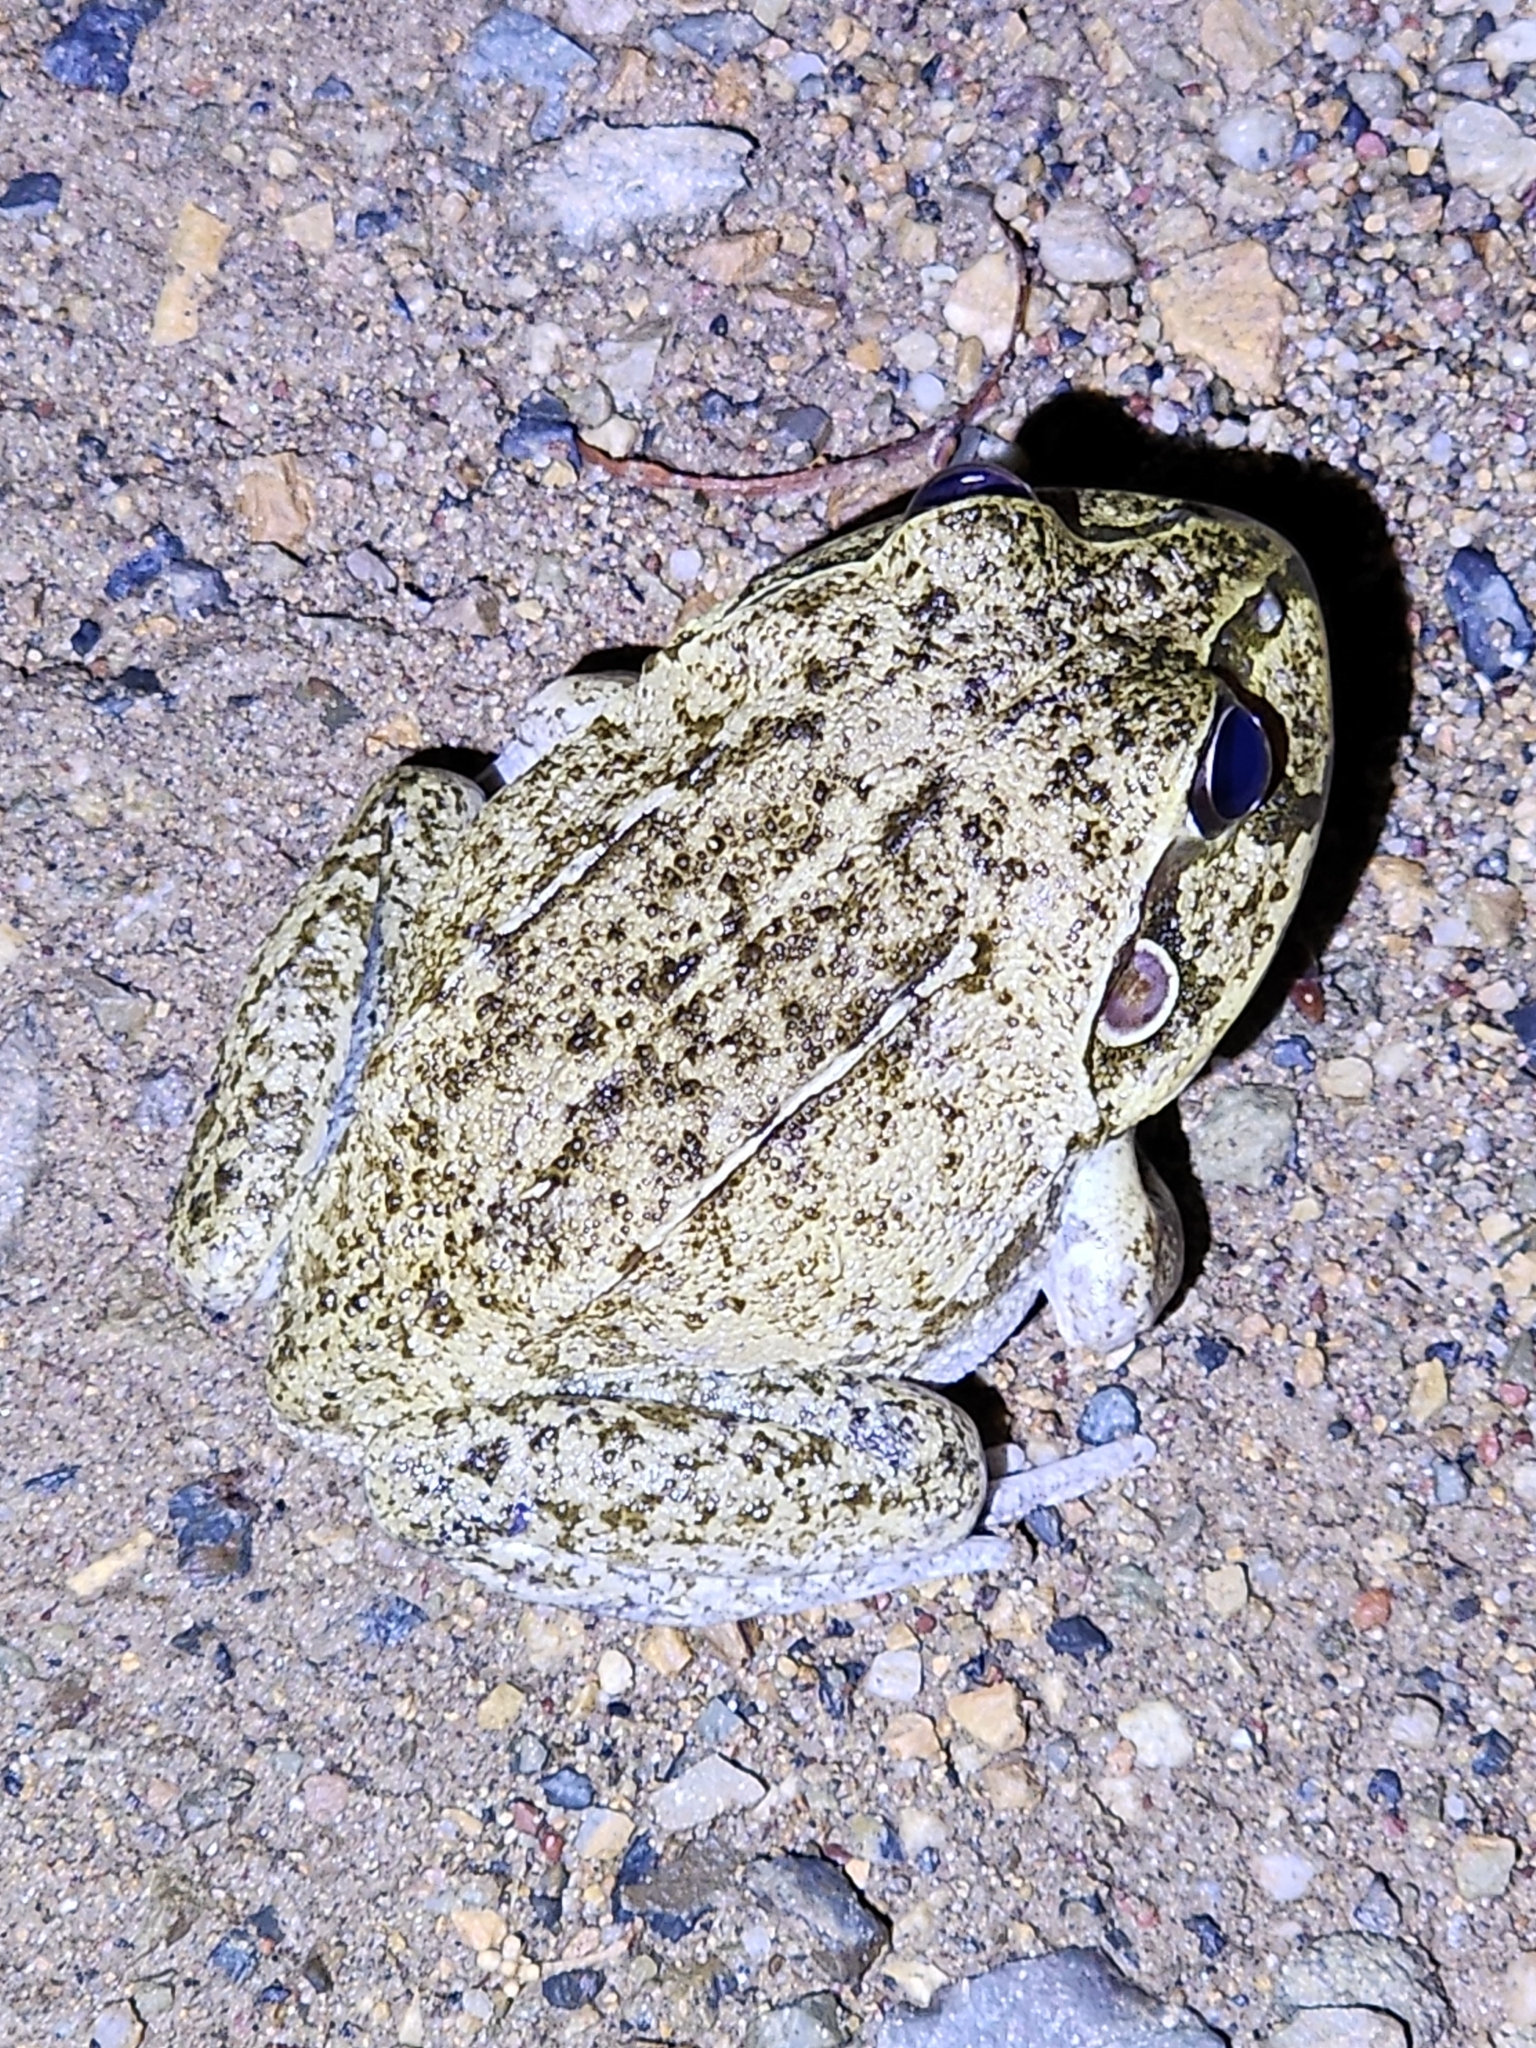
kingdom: Animalia
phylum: Chordata
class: Amphibia
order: Anura
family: Pelodryadidae
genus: Ranoidea
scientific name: Ranoidea novaehollandiae
